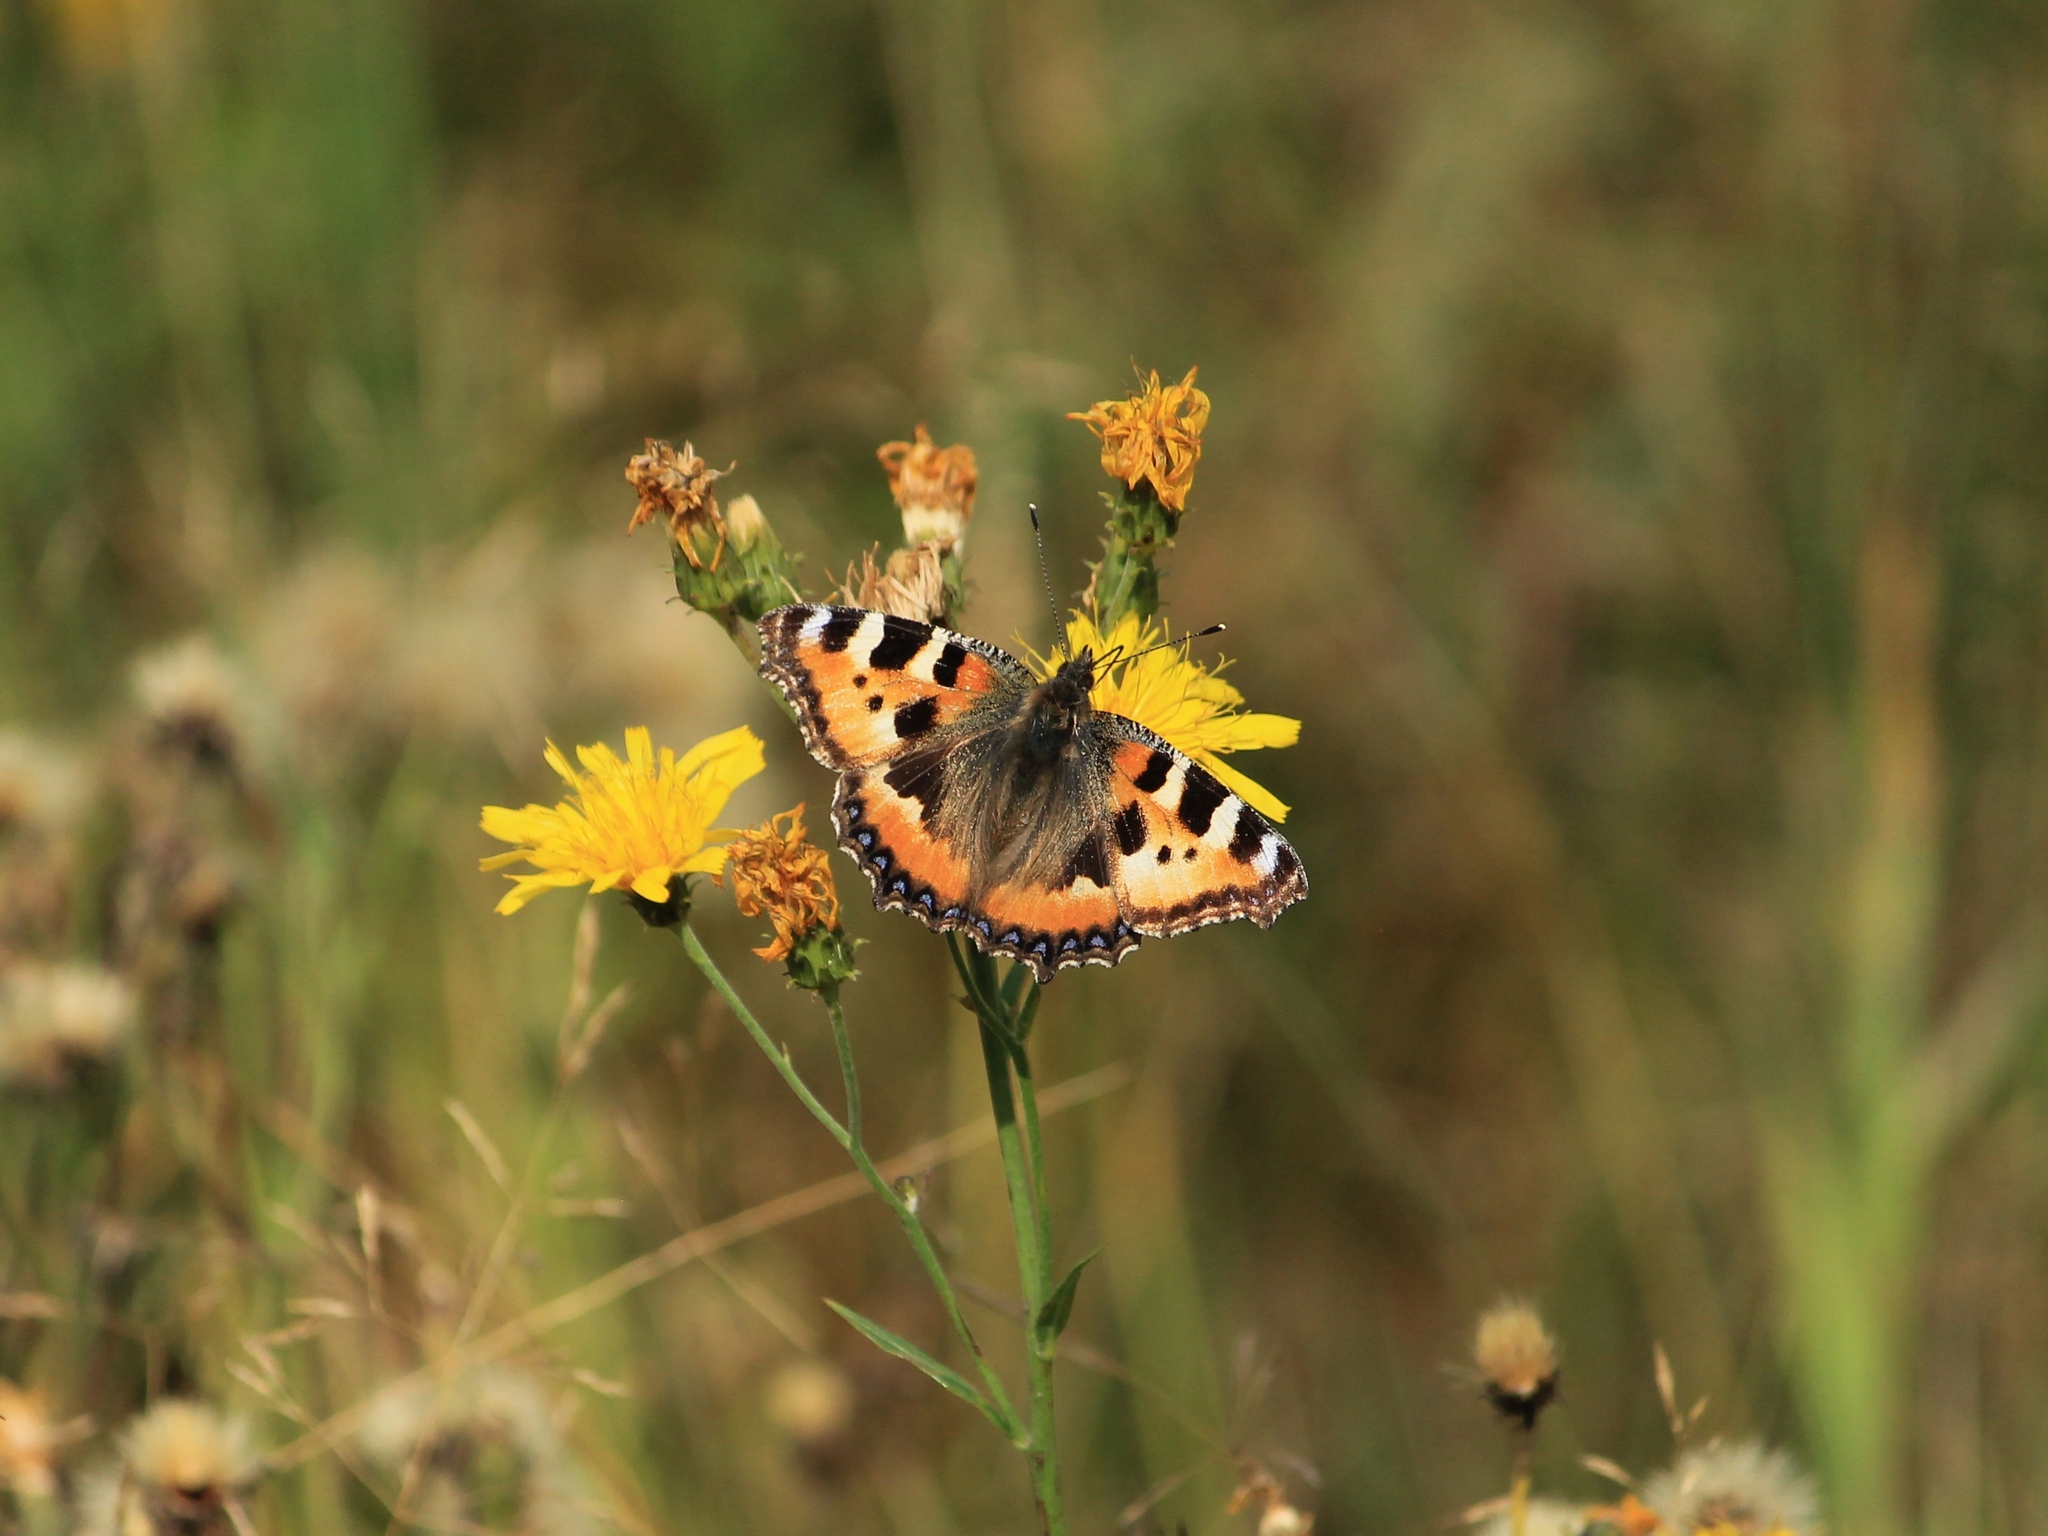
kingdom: Animalia
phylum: Arthropoda
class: Insecta
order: Lepidoptera
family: Nymphalidae
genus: Aglais
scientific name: Aglais urticae
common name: Small tortoiseshell
